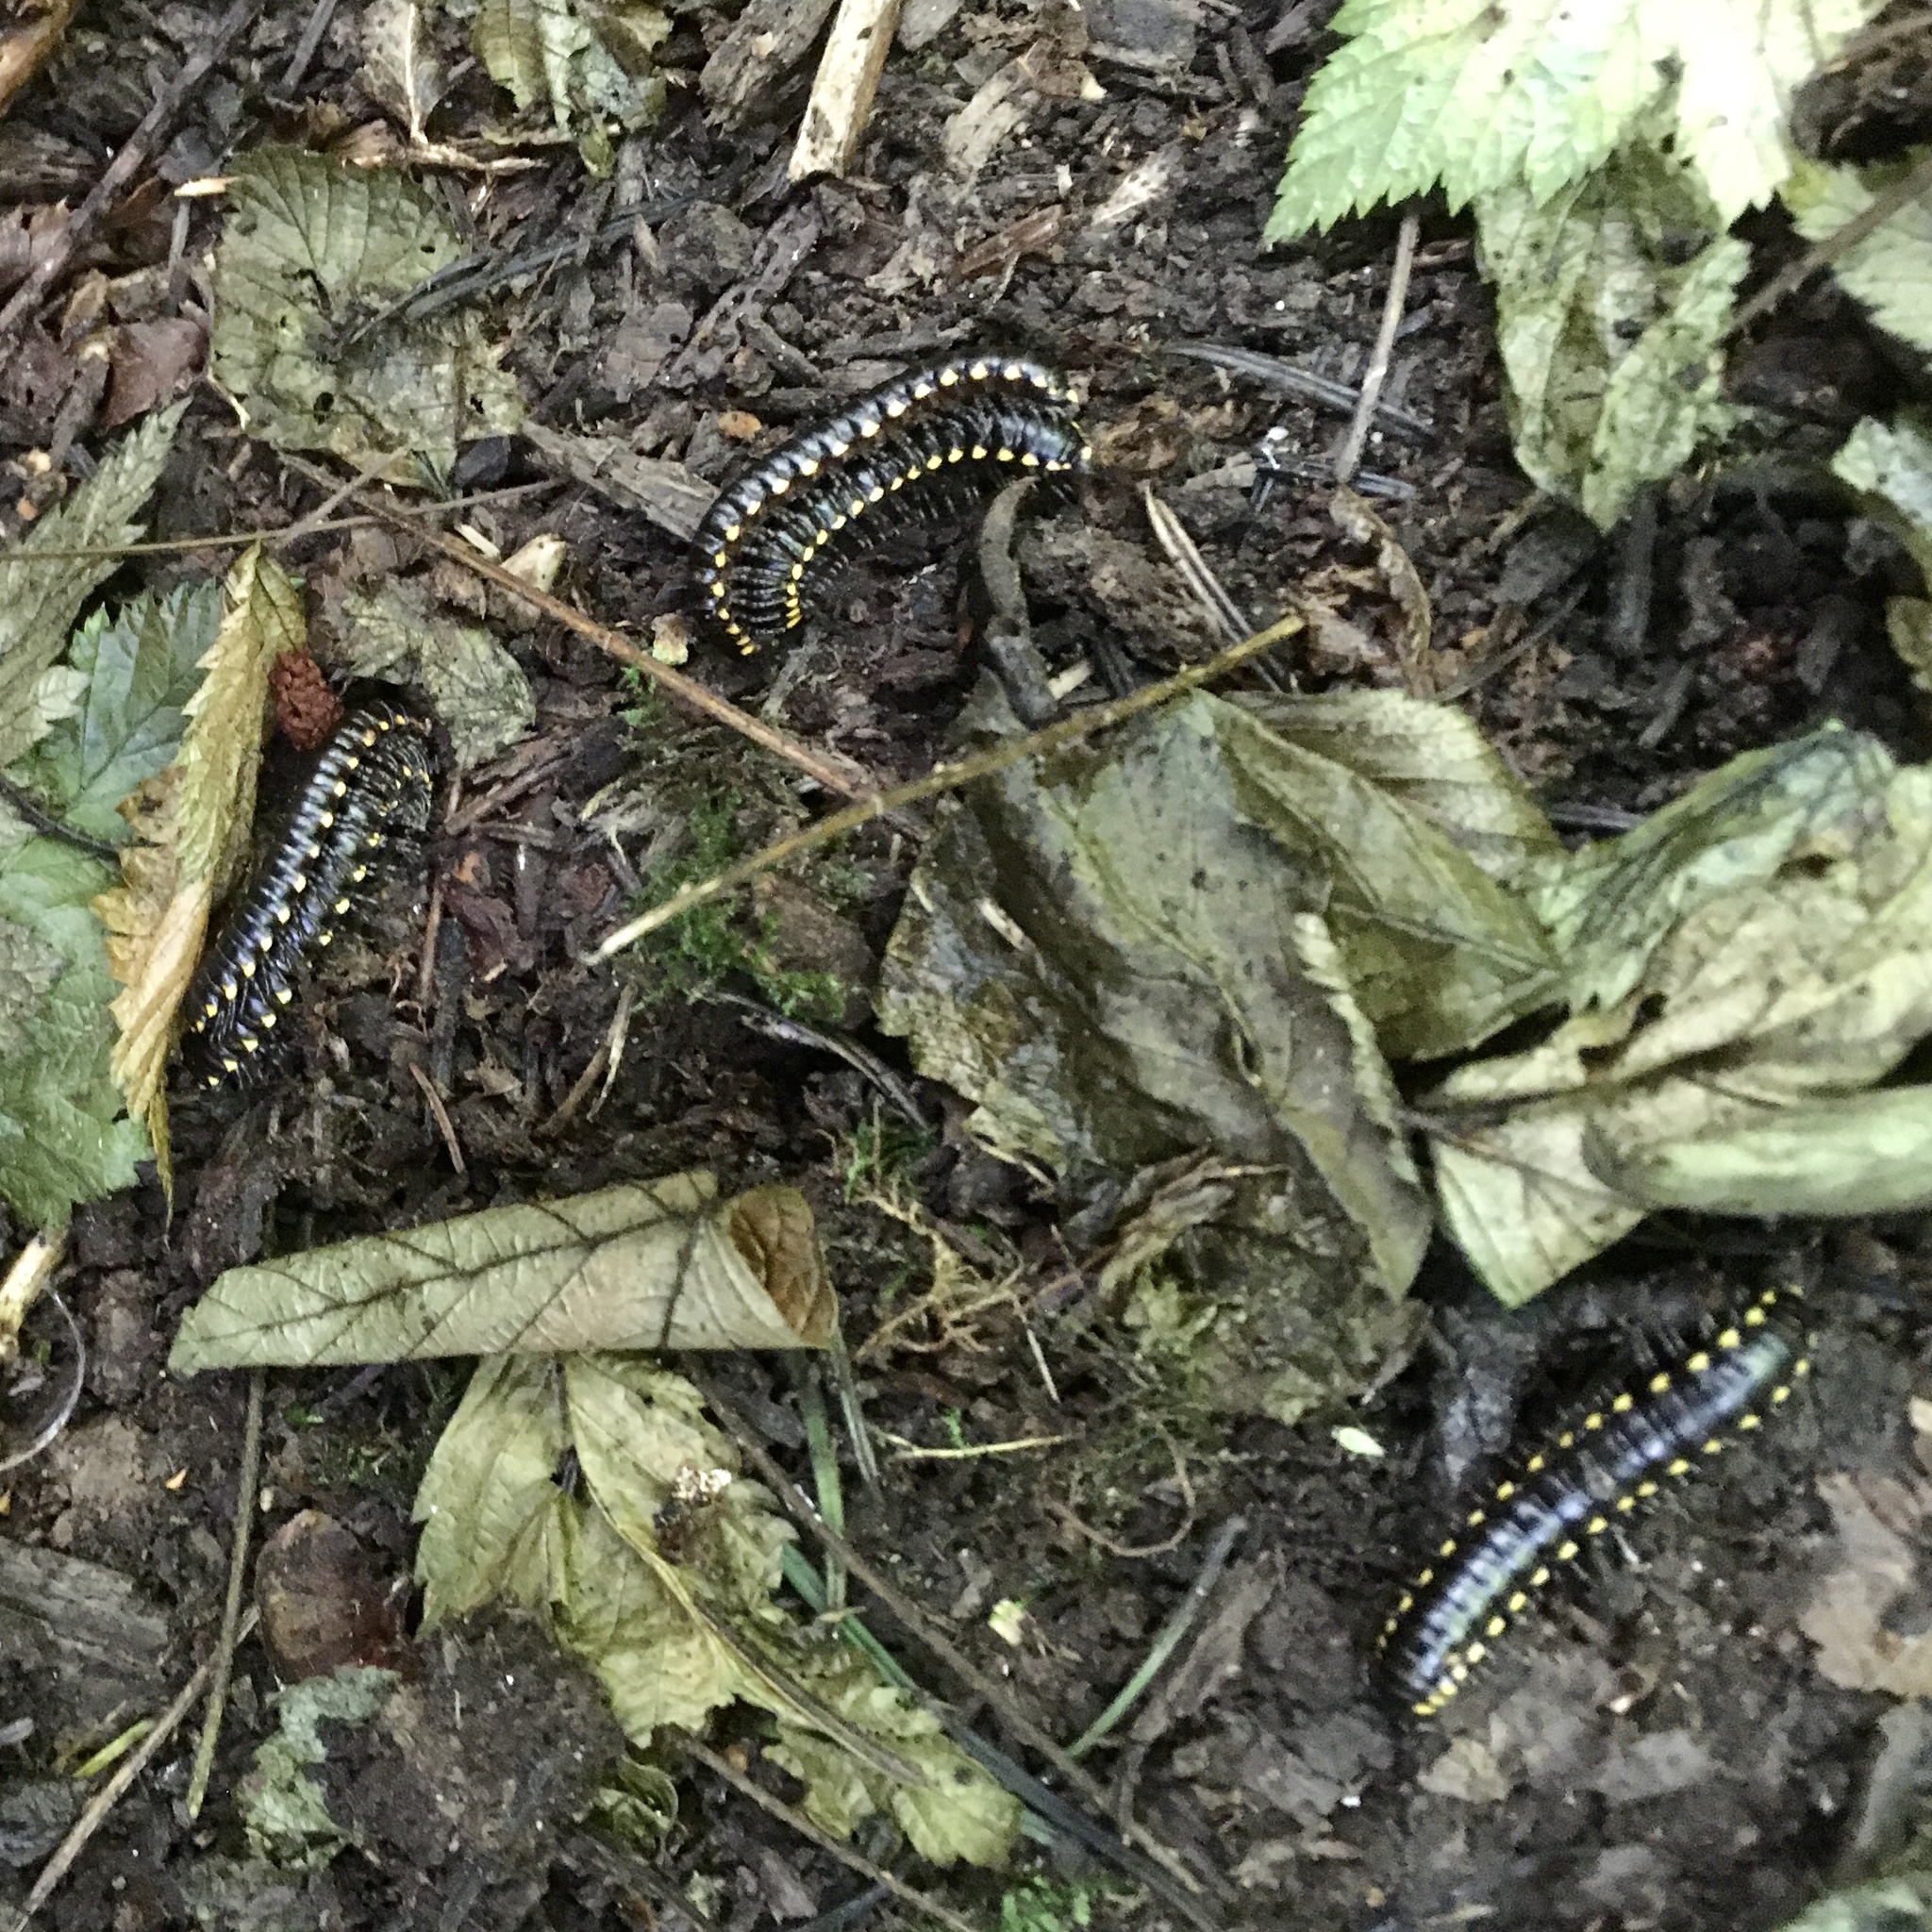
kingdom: Animalia
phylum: Arthropoda
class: Diplopoda
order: Polydesmida
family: Xystodesmidae
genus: Harpaphe
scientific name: Harpaphe haydeniana
